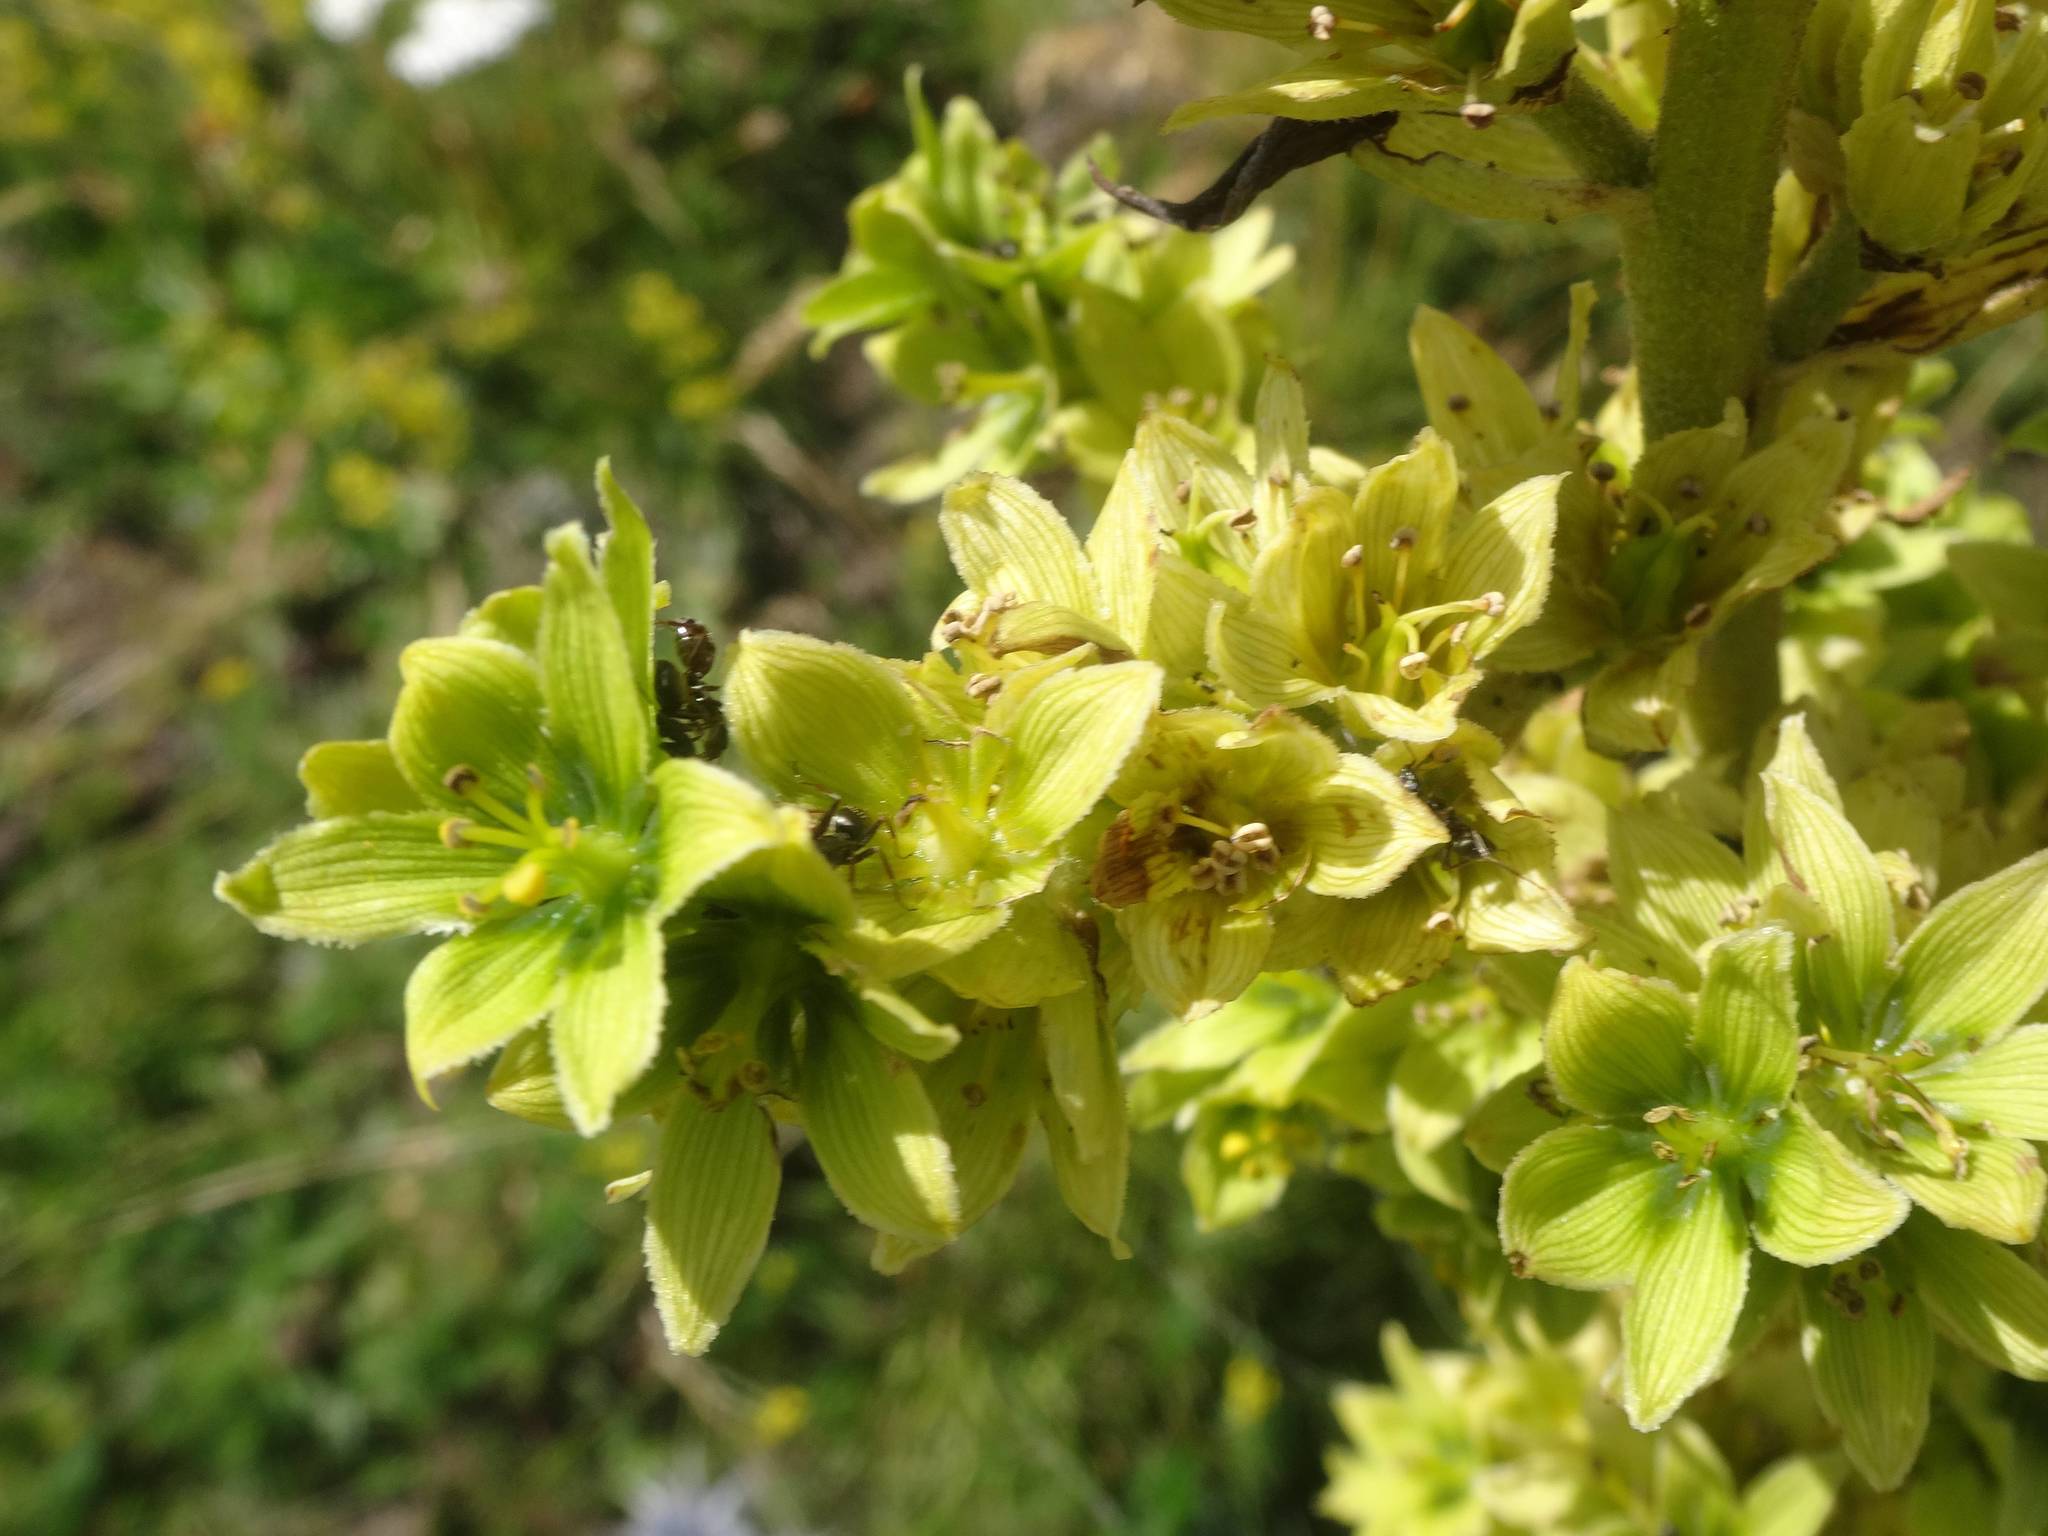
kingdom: Plantae
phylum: Tracheophyta
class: Liliopsida
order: Liliales
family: Melanthiaceae
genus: Veratrum
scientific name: Veratrum album
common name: White veratrum
